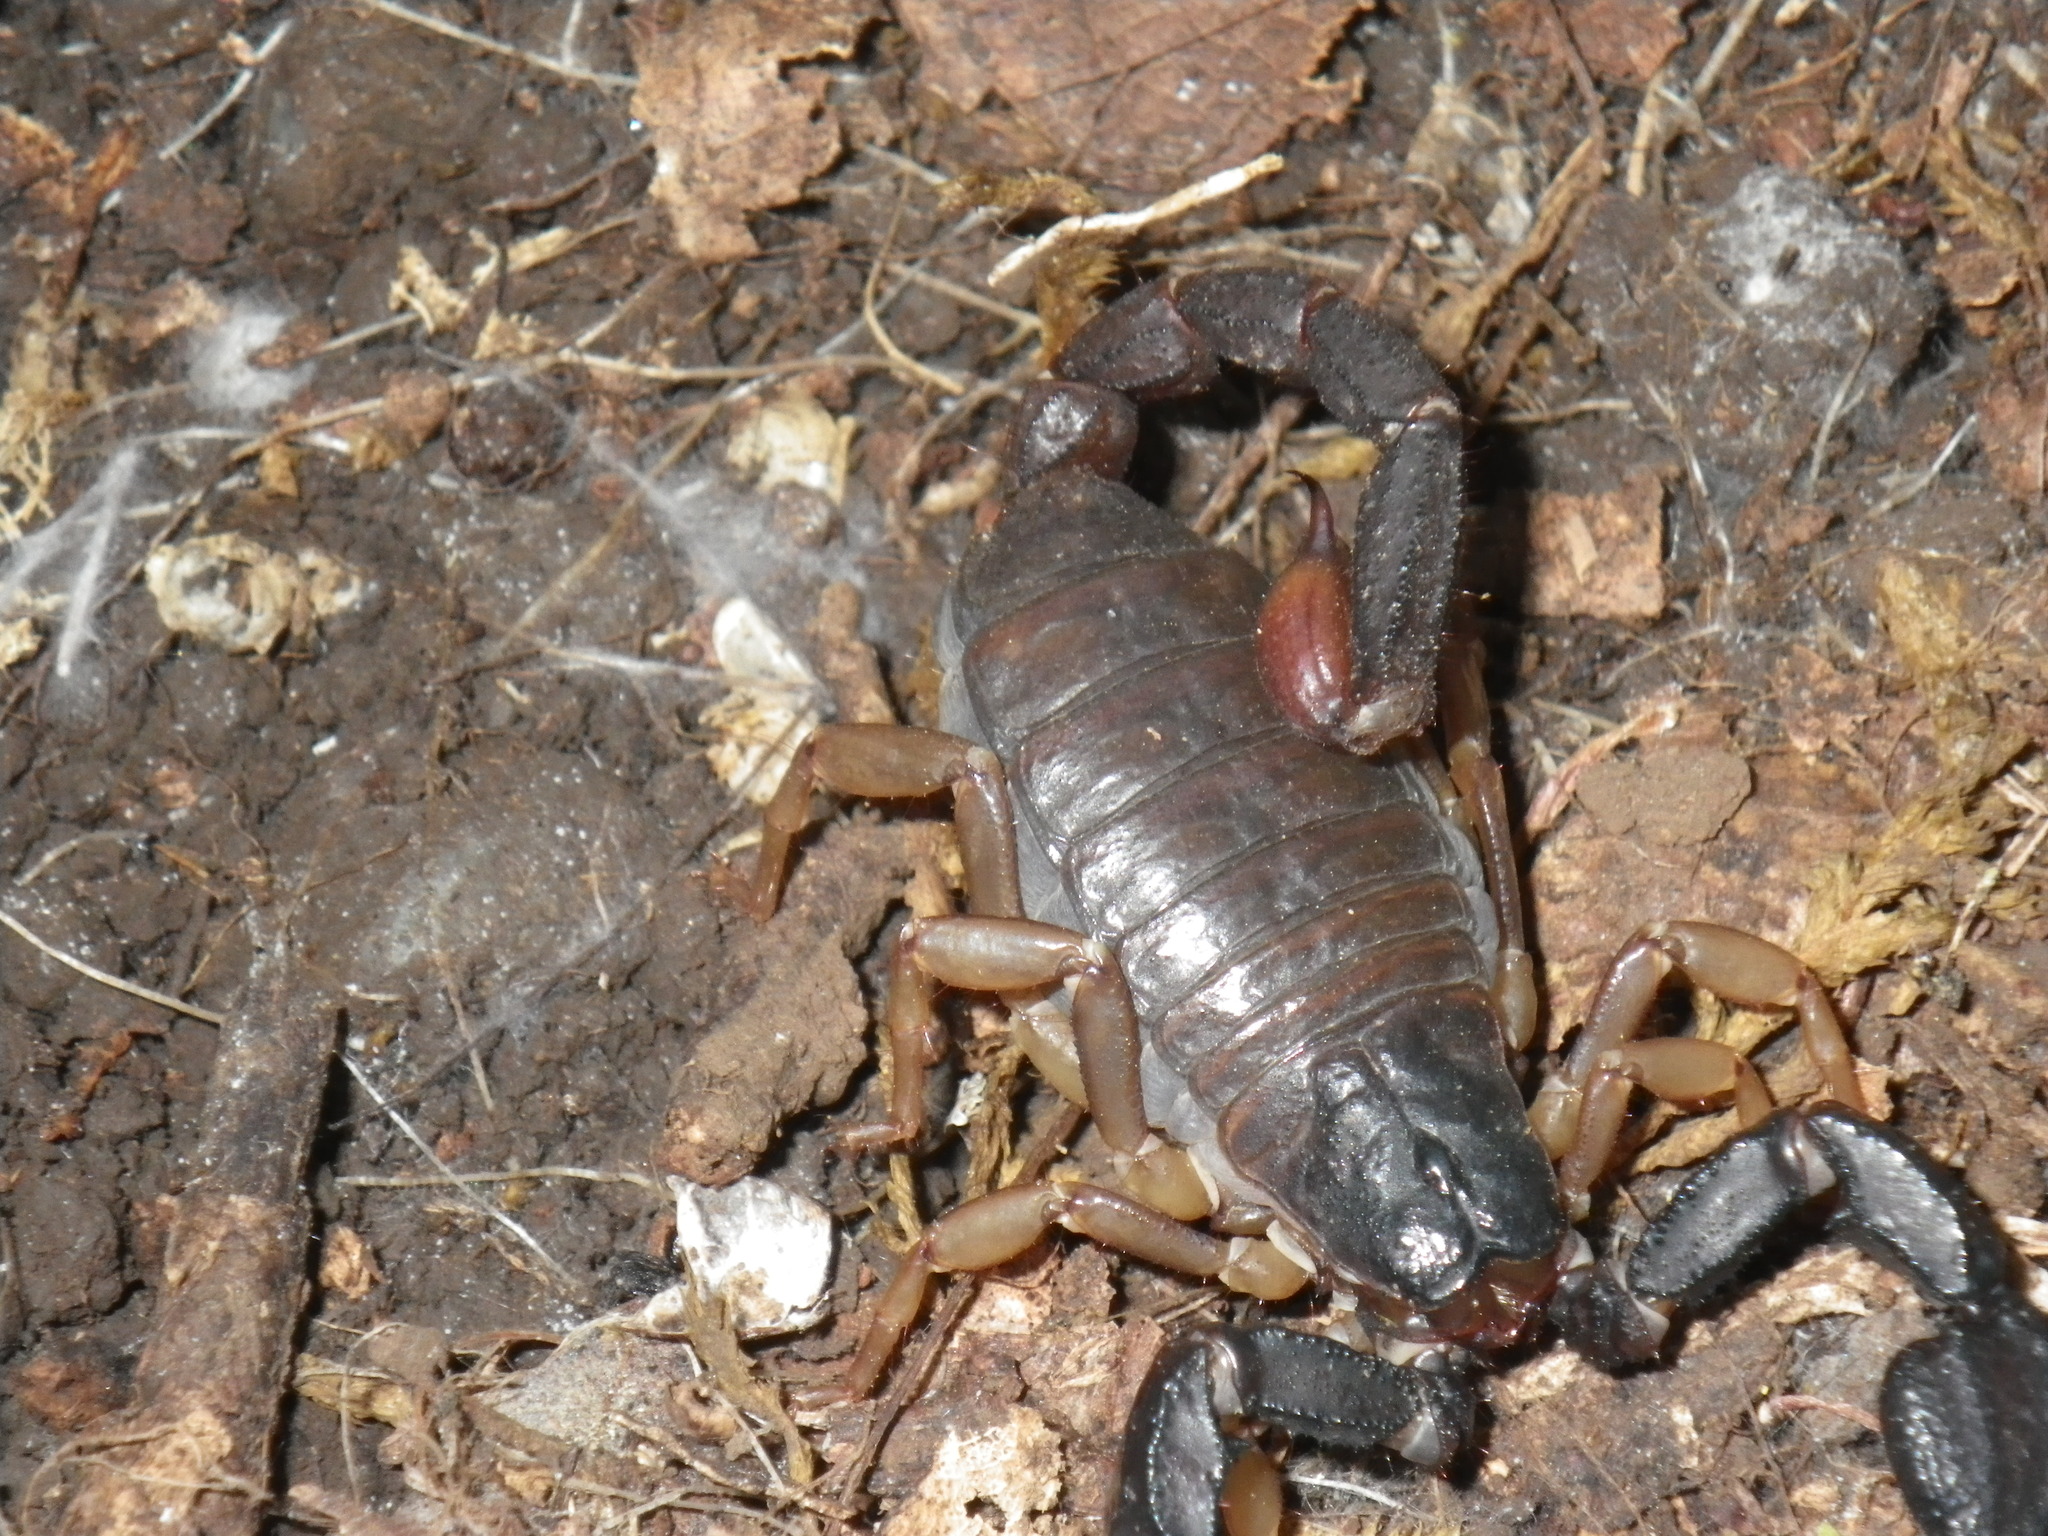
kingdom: Animalia
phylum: Arthropoda
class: Arachnida
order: Scorpiones
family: Chactidae
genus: Uroctonus
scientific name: Uroctonus mordax
